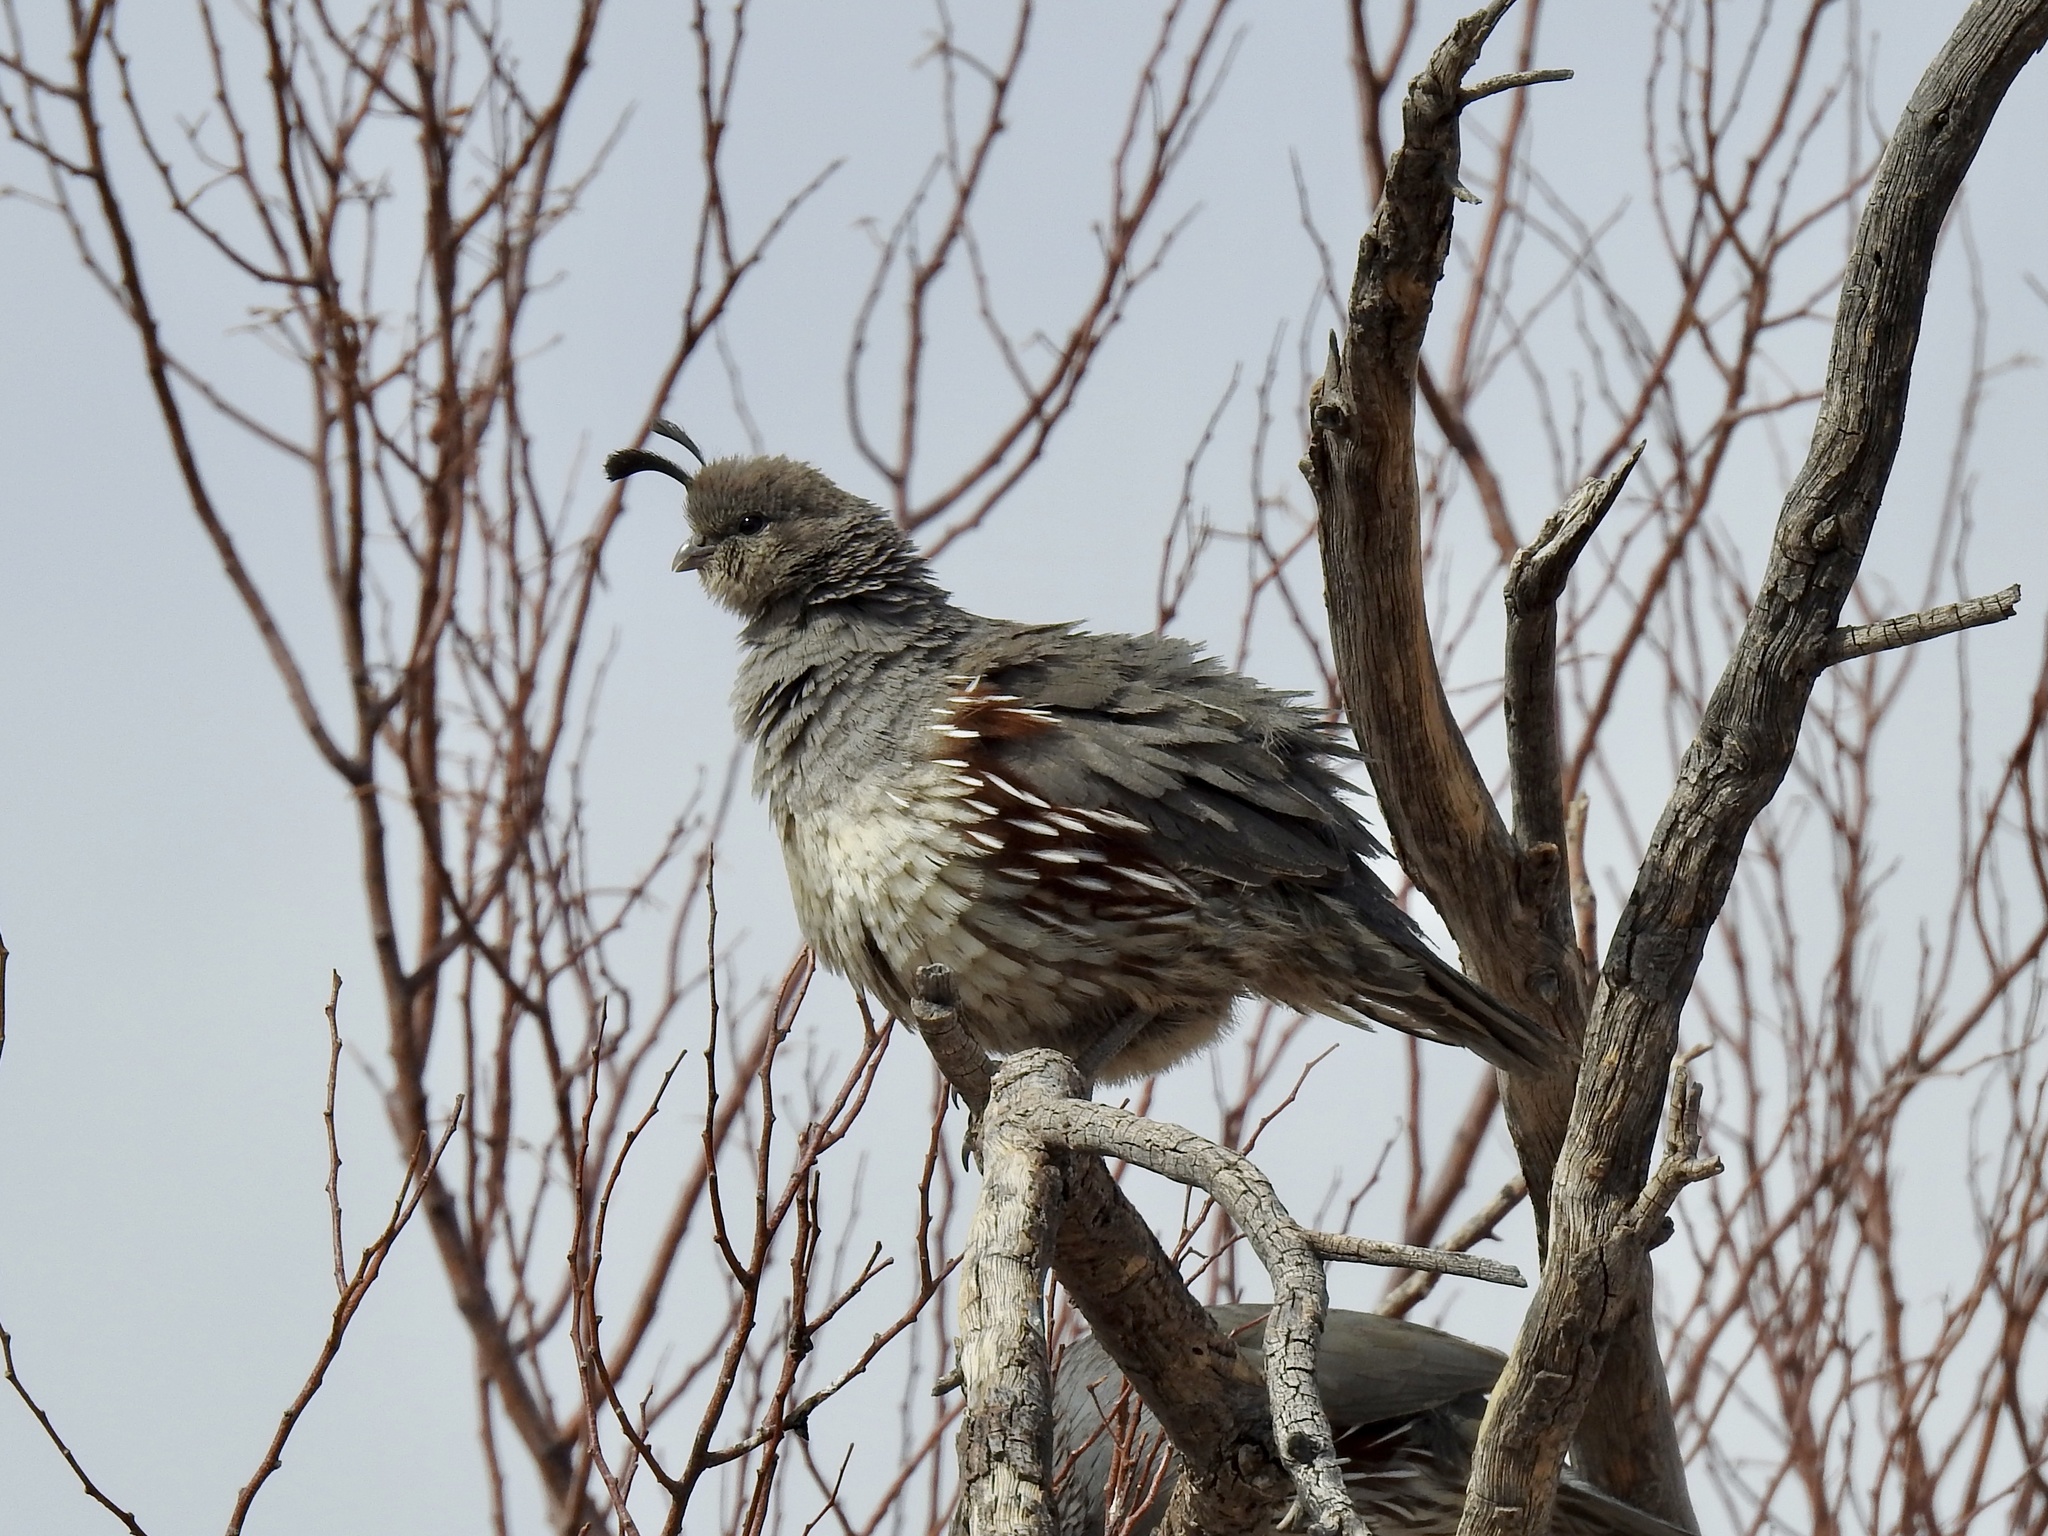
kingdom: Animalia
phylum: Chordata
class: Aves
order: Galliformes
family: Odontophoridae
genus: Callipepla
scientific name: Callipepla gambelii
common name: Gambel's quail
